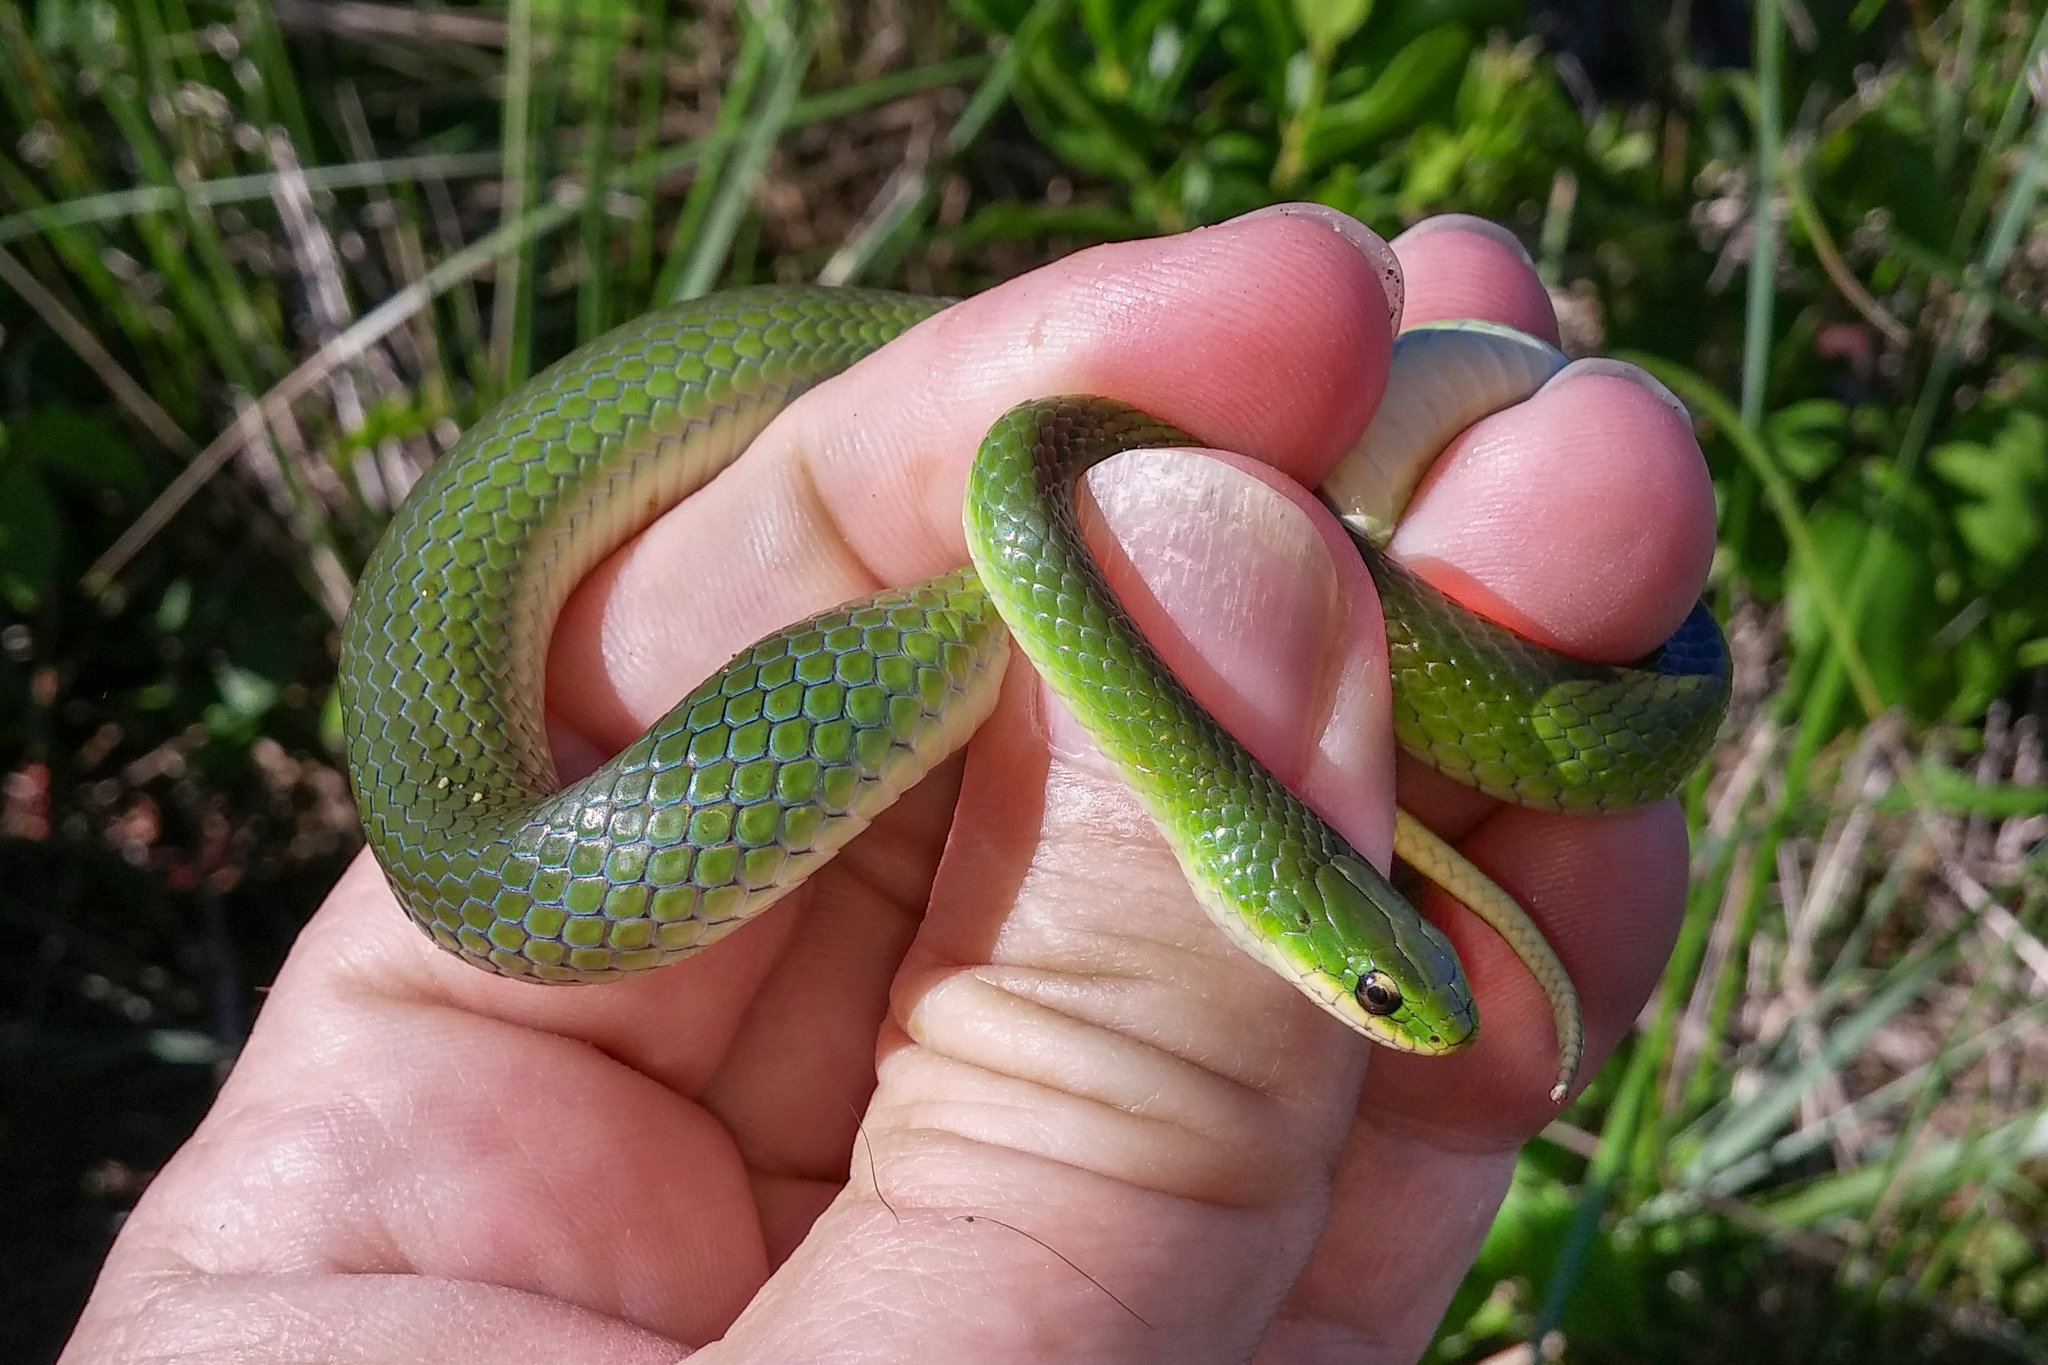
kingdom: Animalia
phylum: Chordata
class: Squamata
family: Colubridae
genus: Opheodrys
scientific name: Opheodrys vernalis
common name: Smooth green snake
